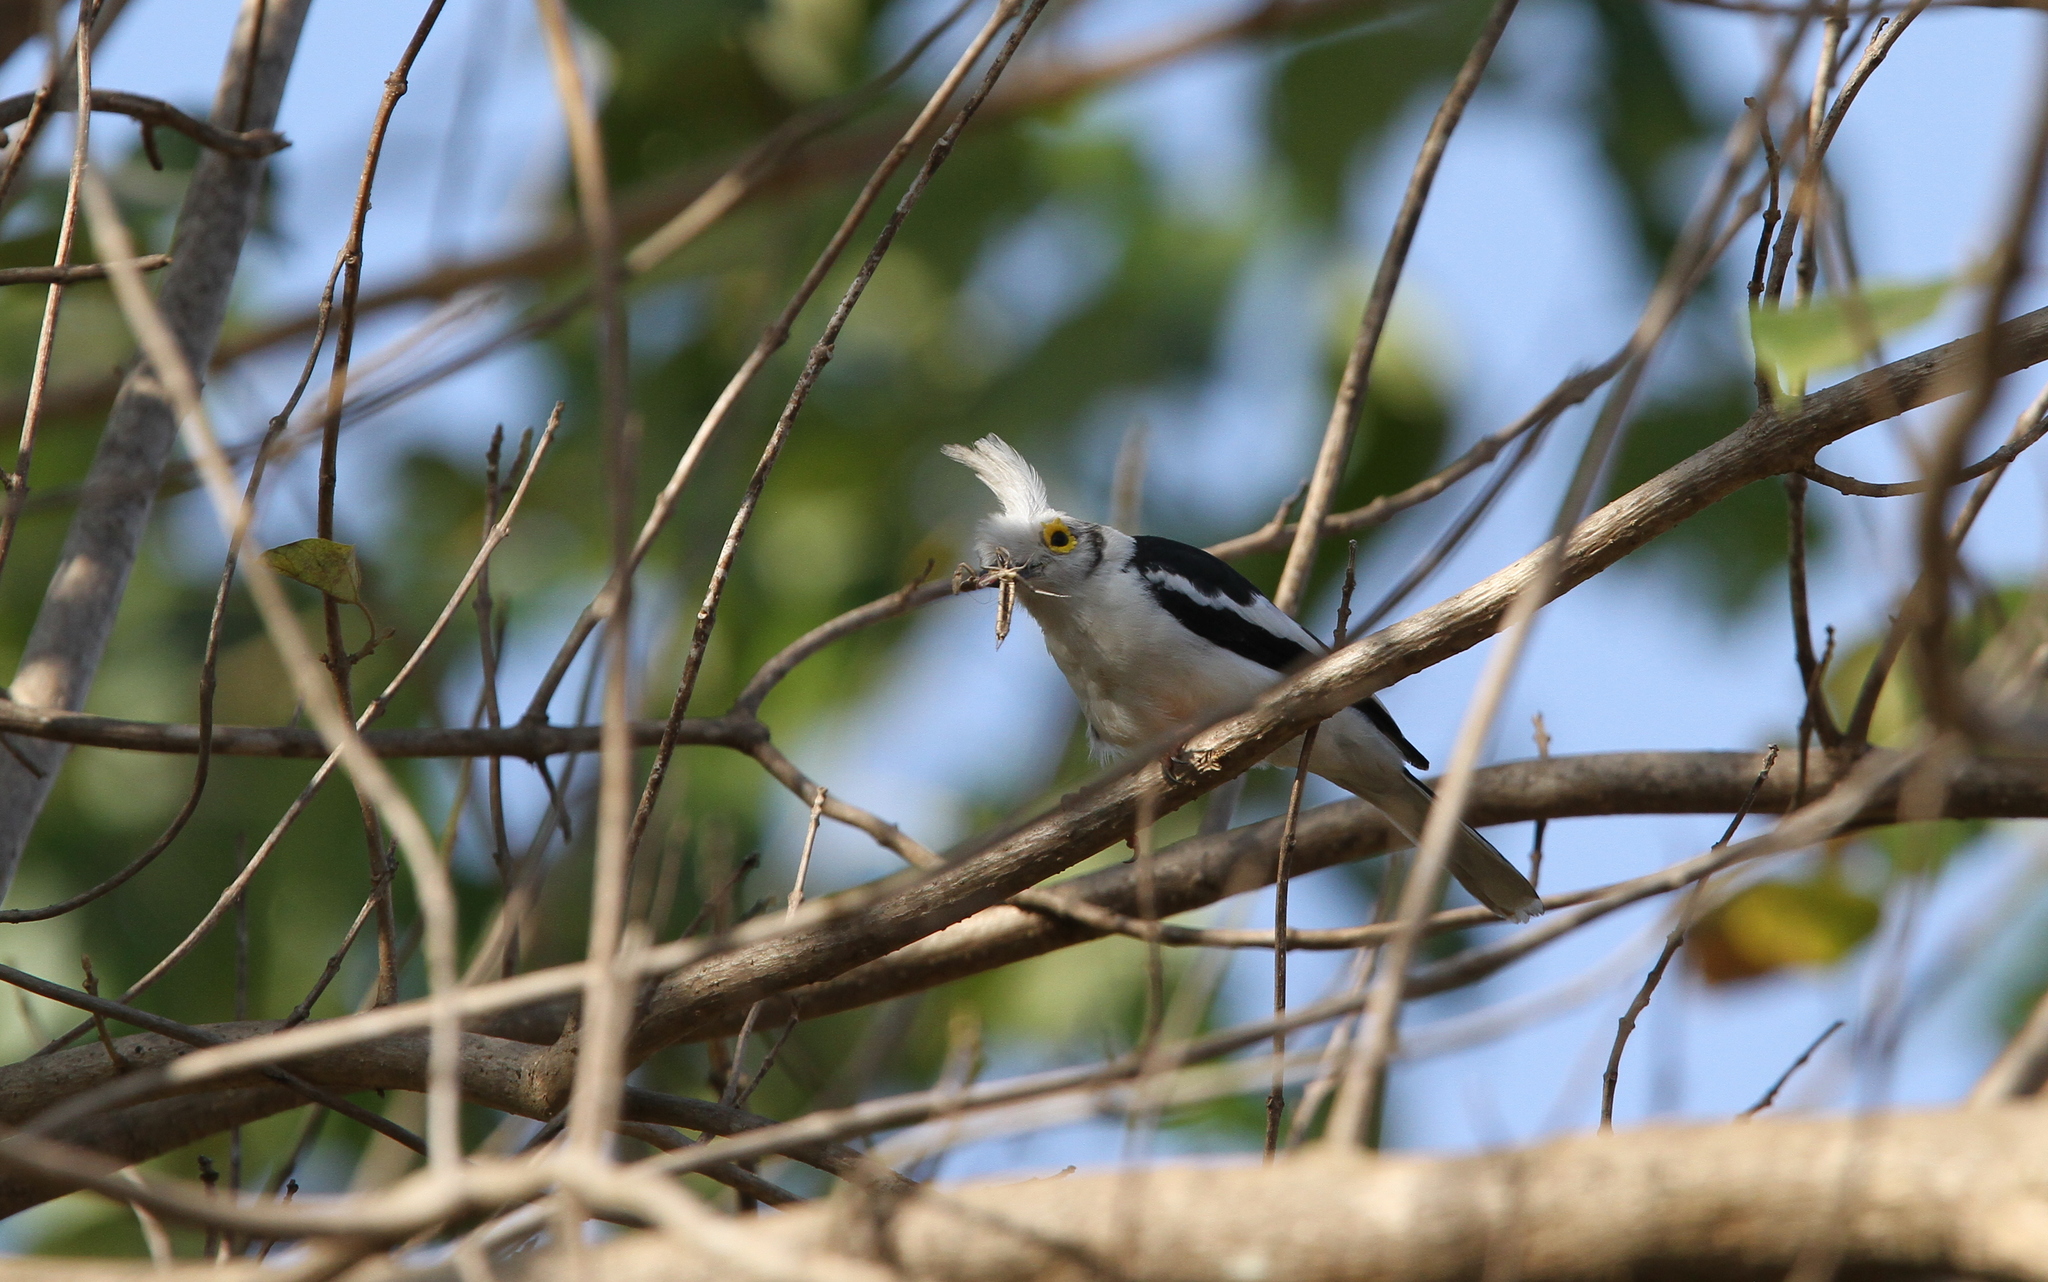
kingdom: Animalia
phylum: Chordata
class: Aves
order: Passeriformes
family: Prionopidae
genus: Prionops
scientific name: Prionops plumatus
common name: White-crested helmetshrike
